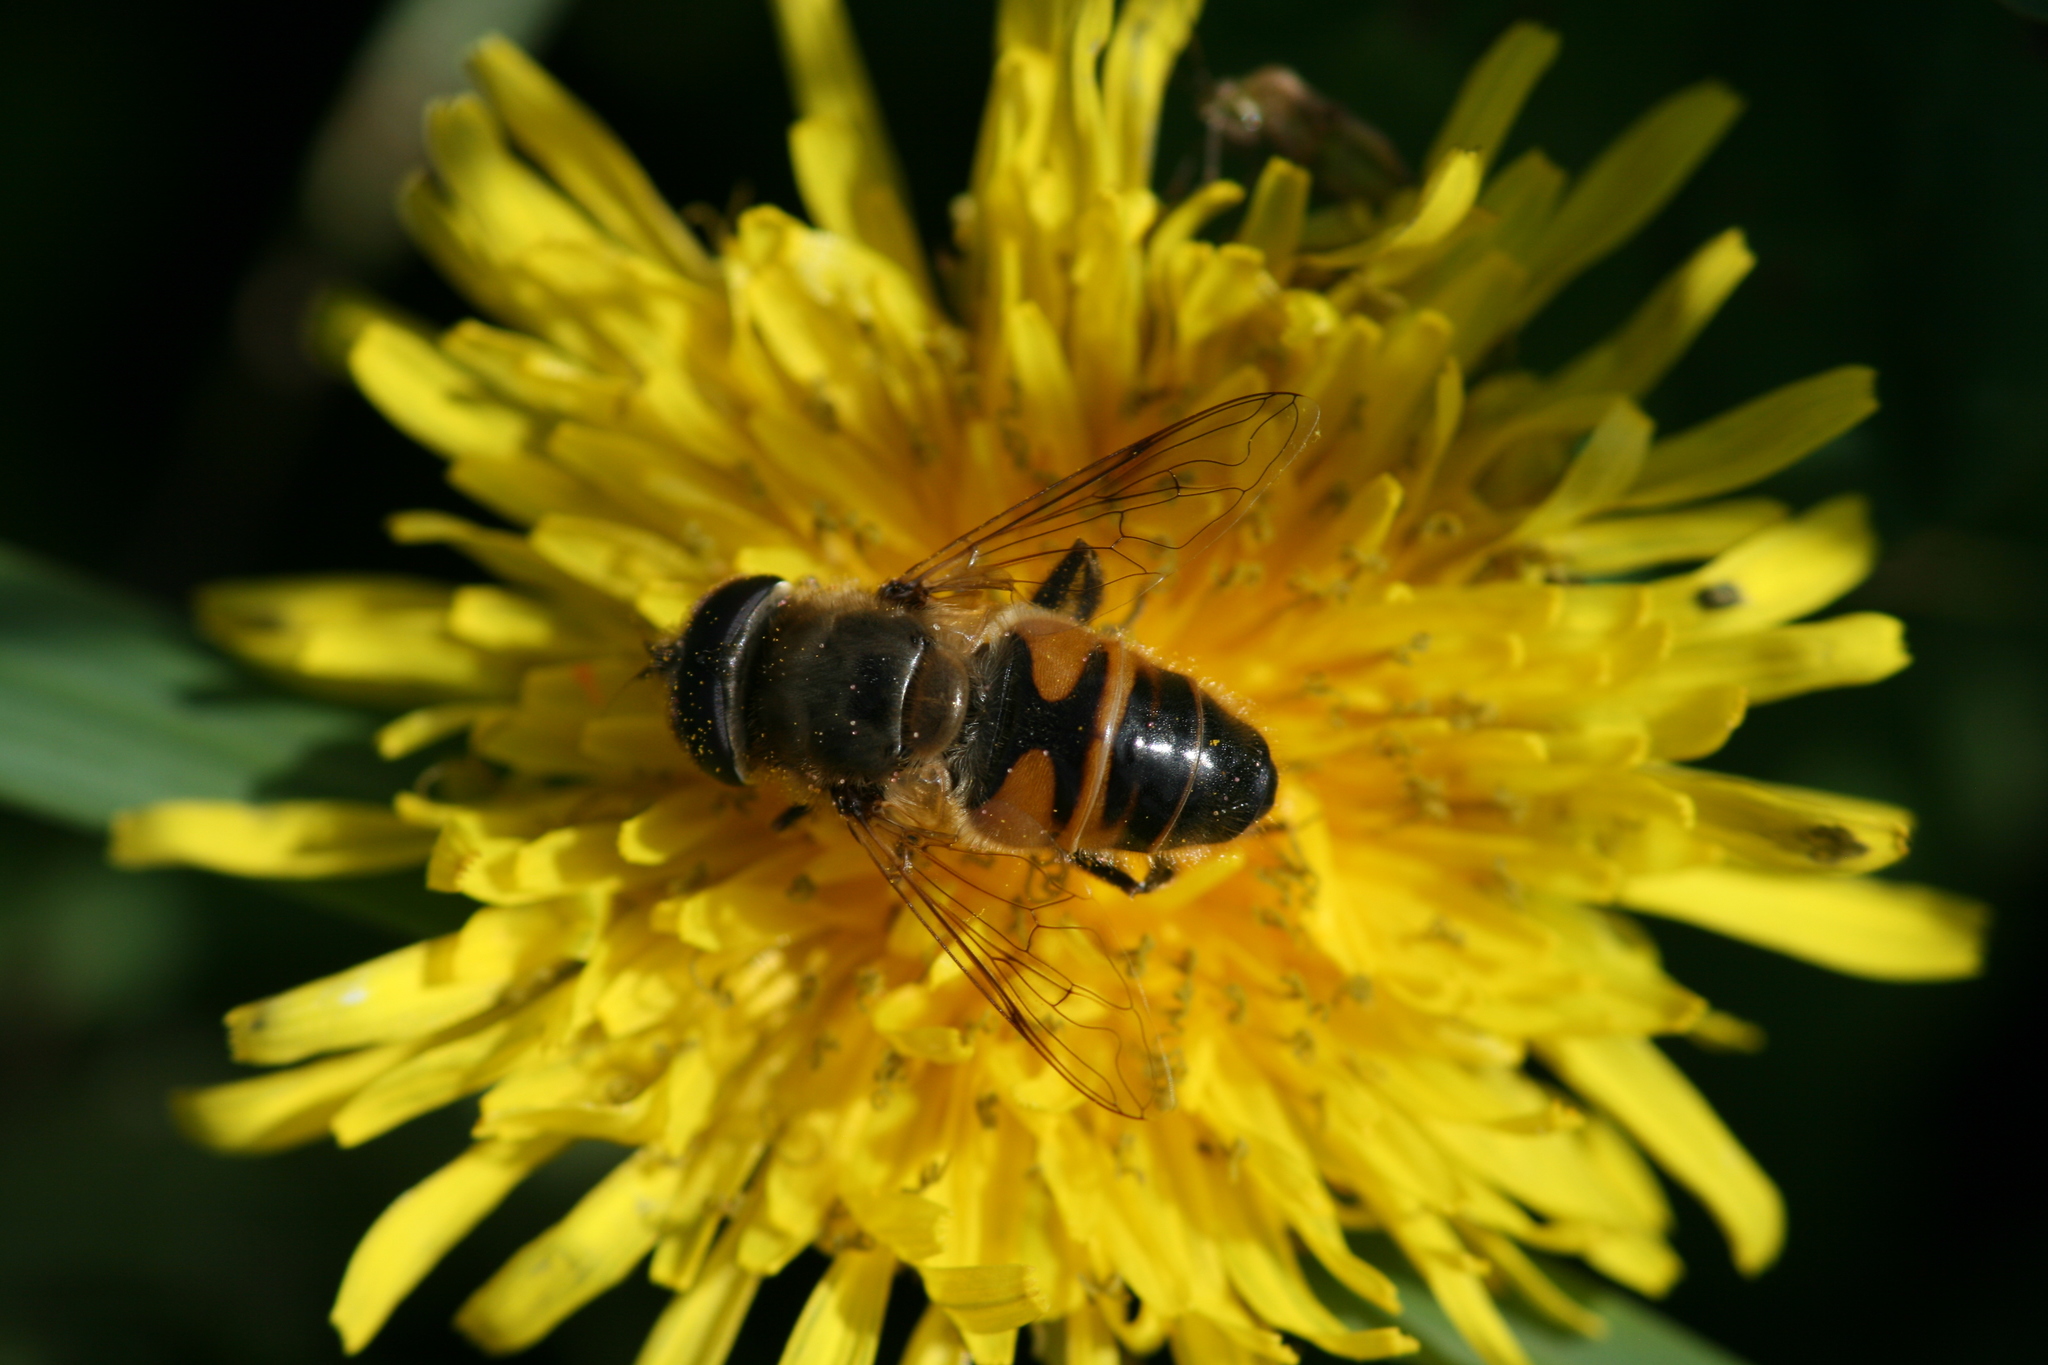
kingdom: Animalia
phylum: Arthropoda
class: Insecta
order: Diptera
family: Syrphidae
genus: Eristalis
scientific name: Eristalis tenax
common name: Drone fly
